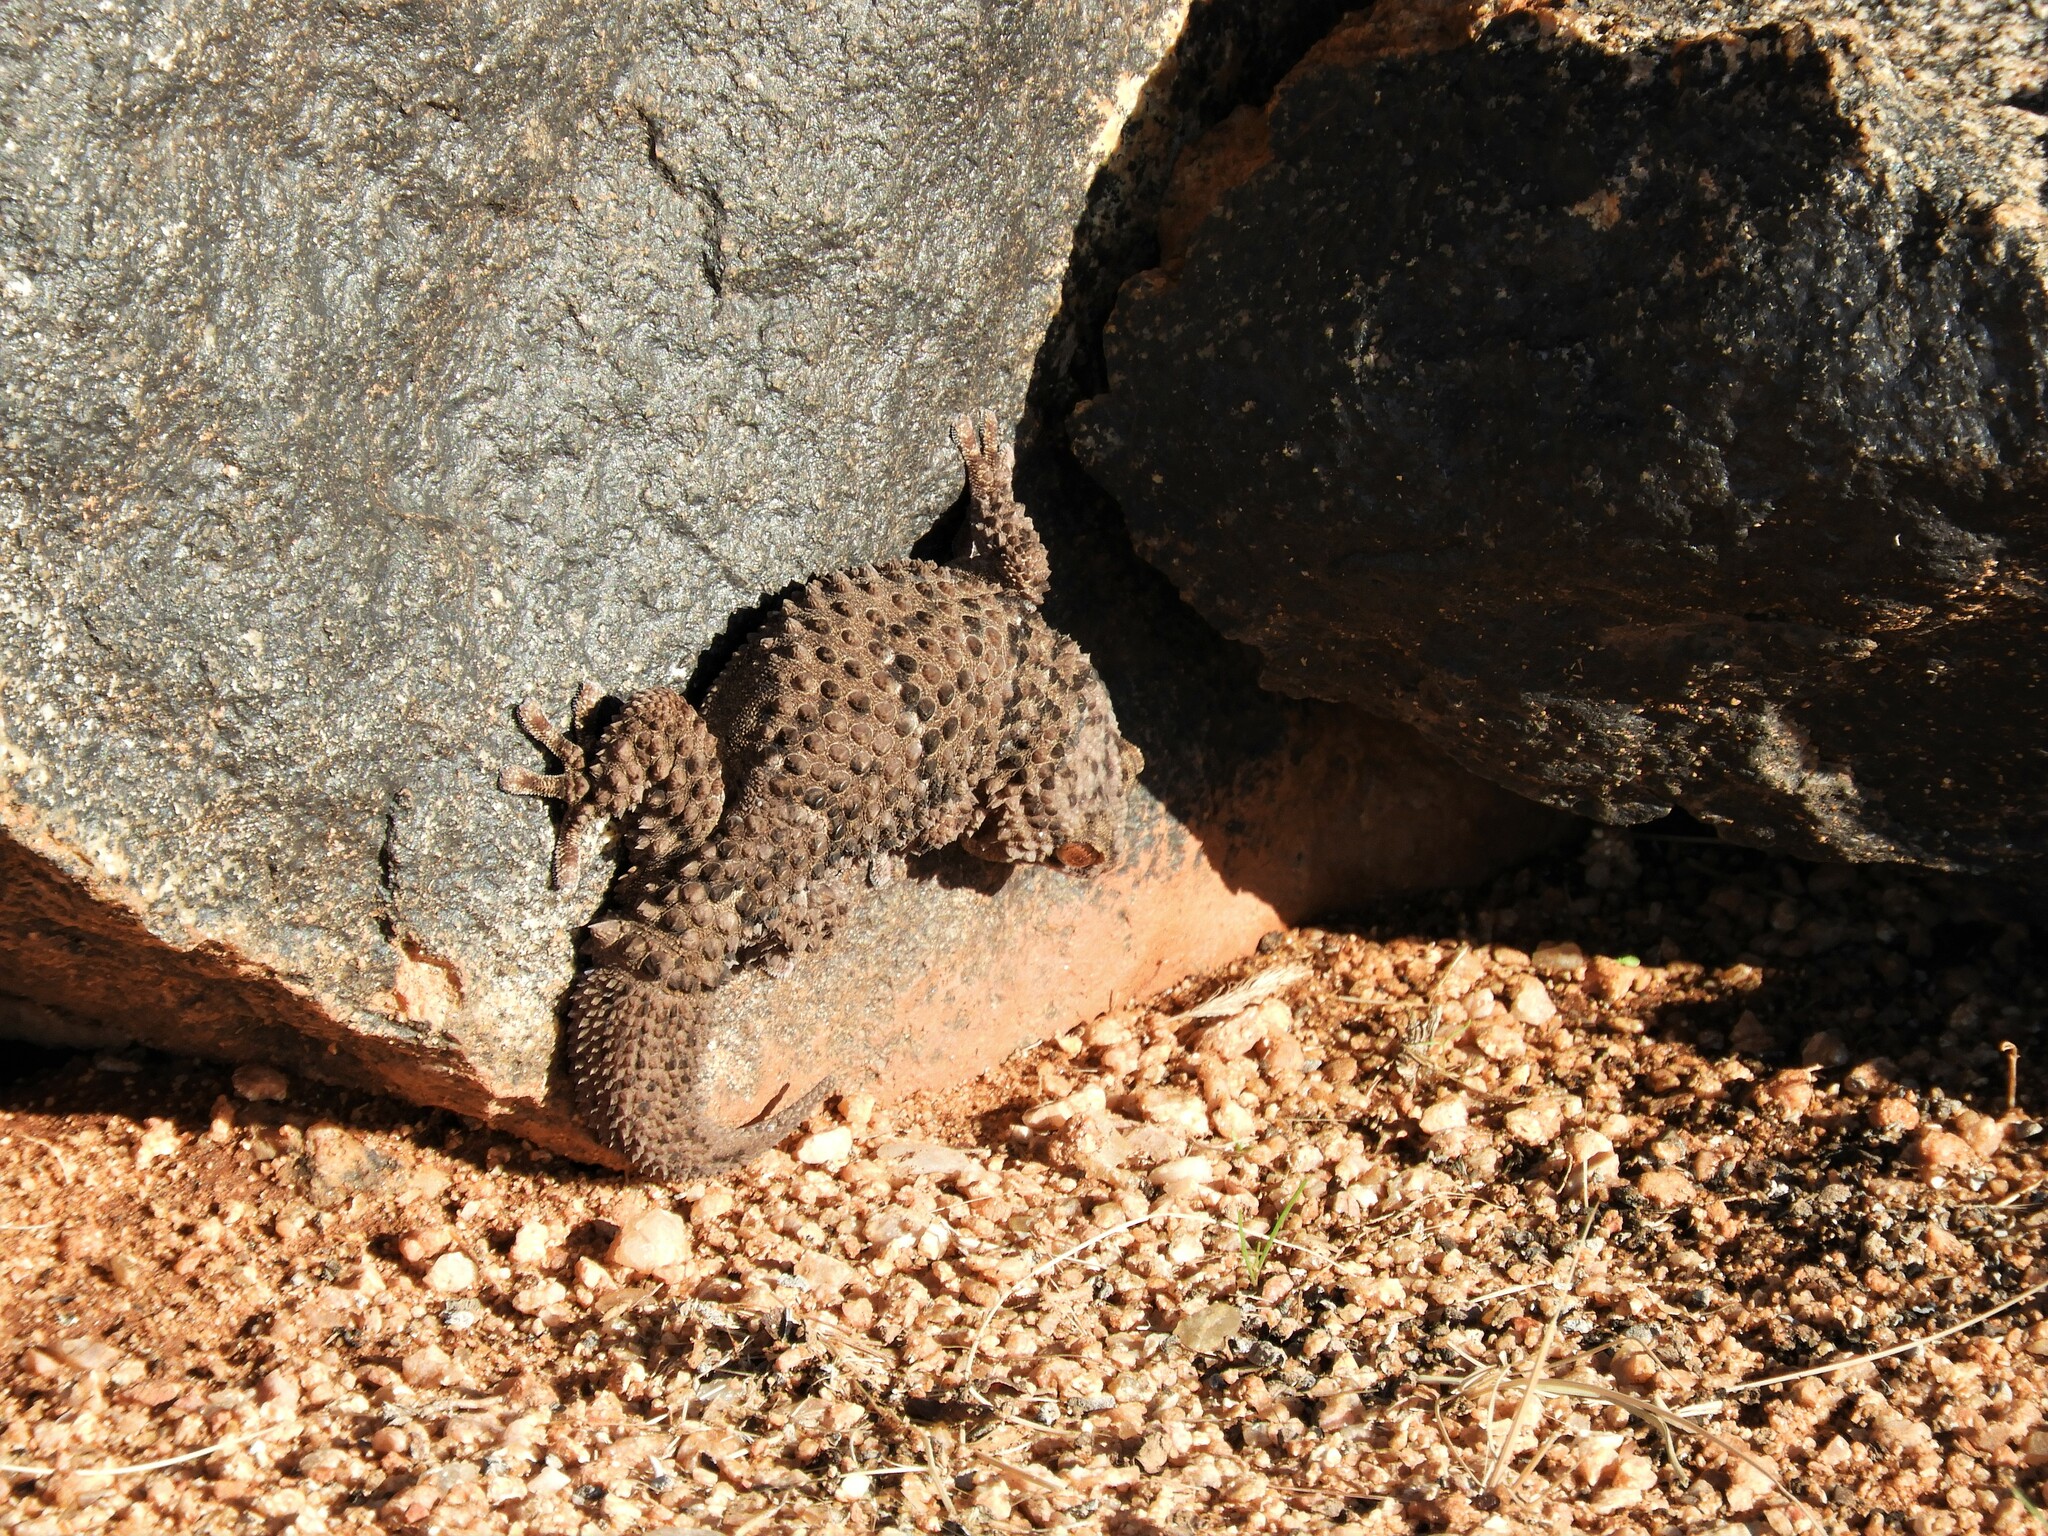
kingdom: Animalia
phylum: Chordata
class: Squamata
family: Gekkonidae
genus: Chondrodactylus
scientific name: Chondrodactylus bibronii
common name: Bibron's gecko
